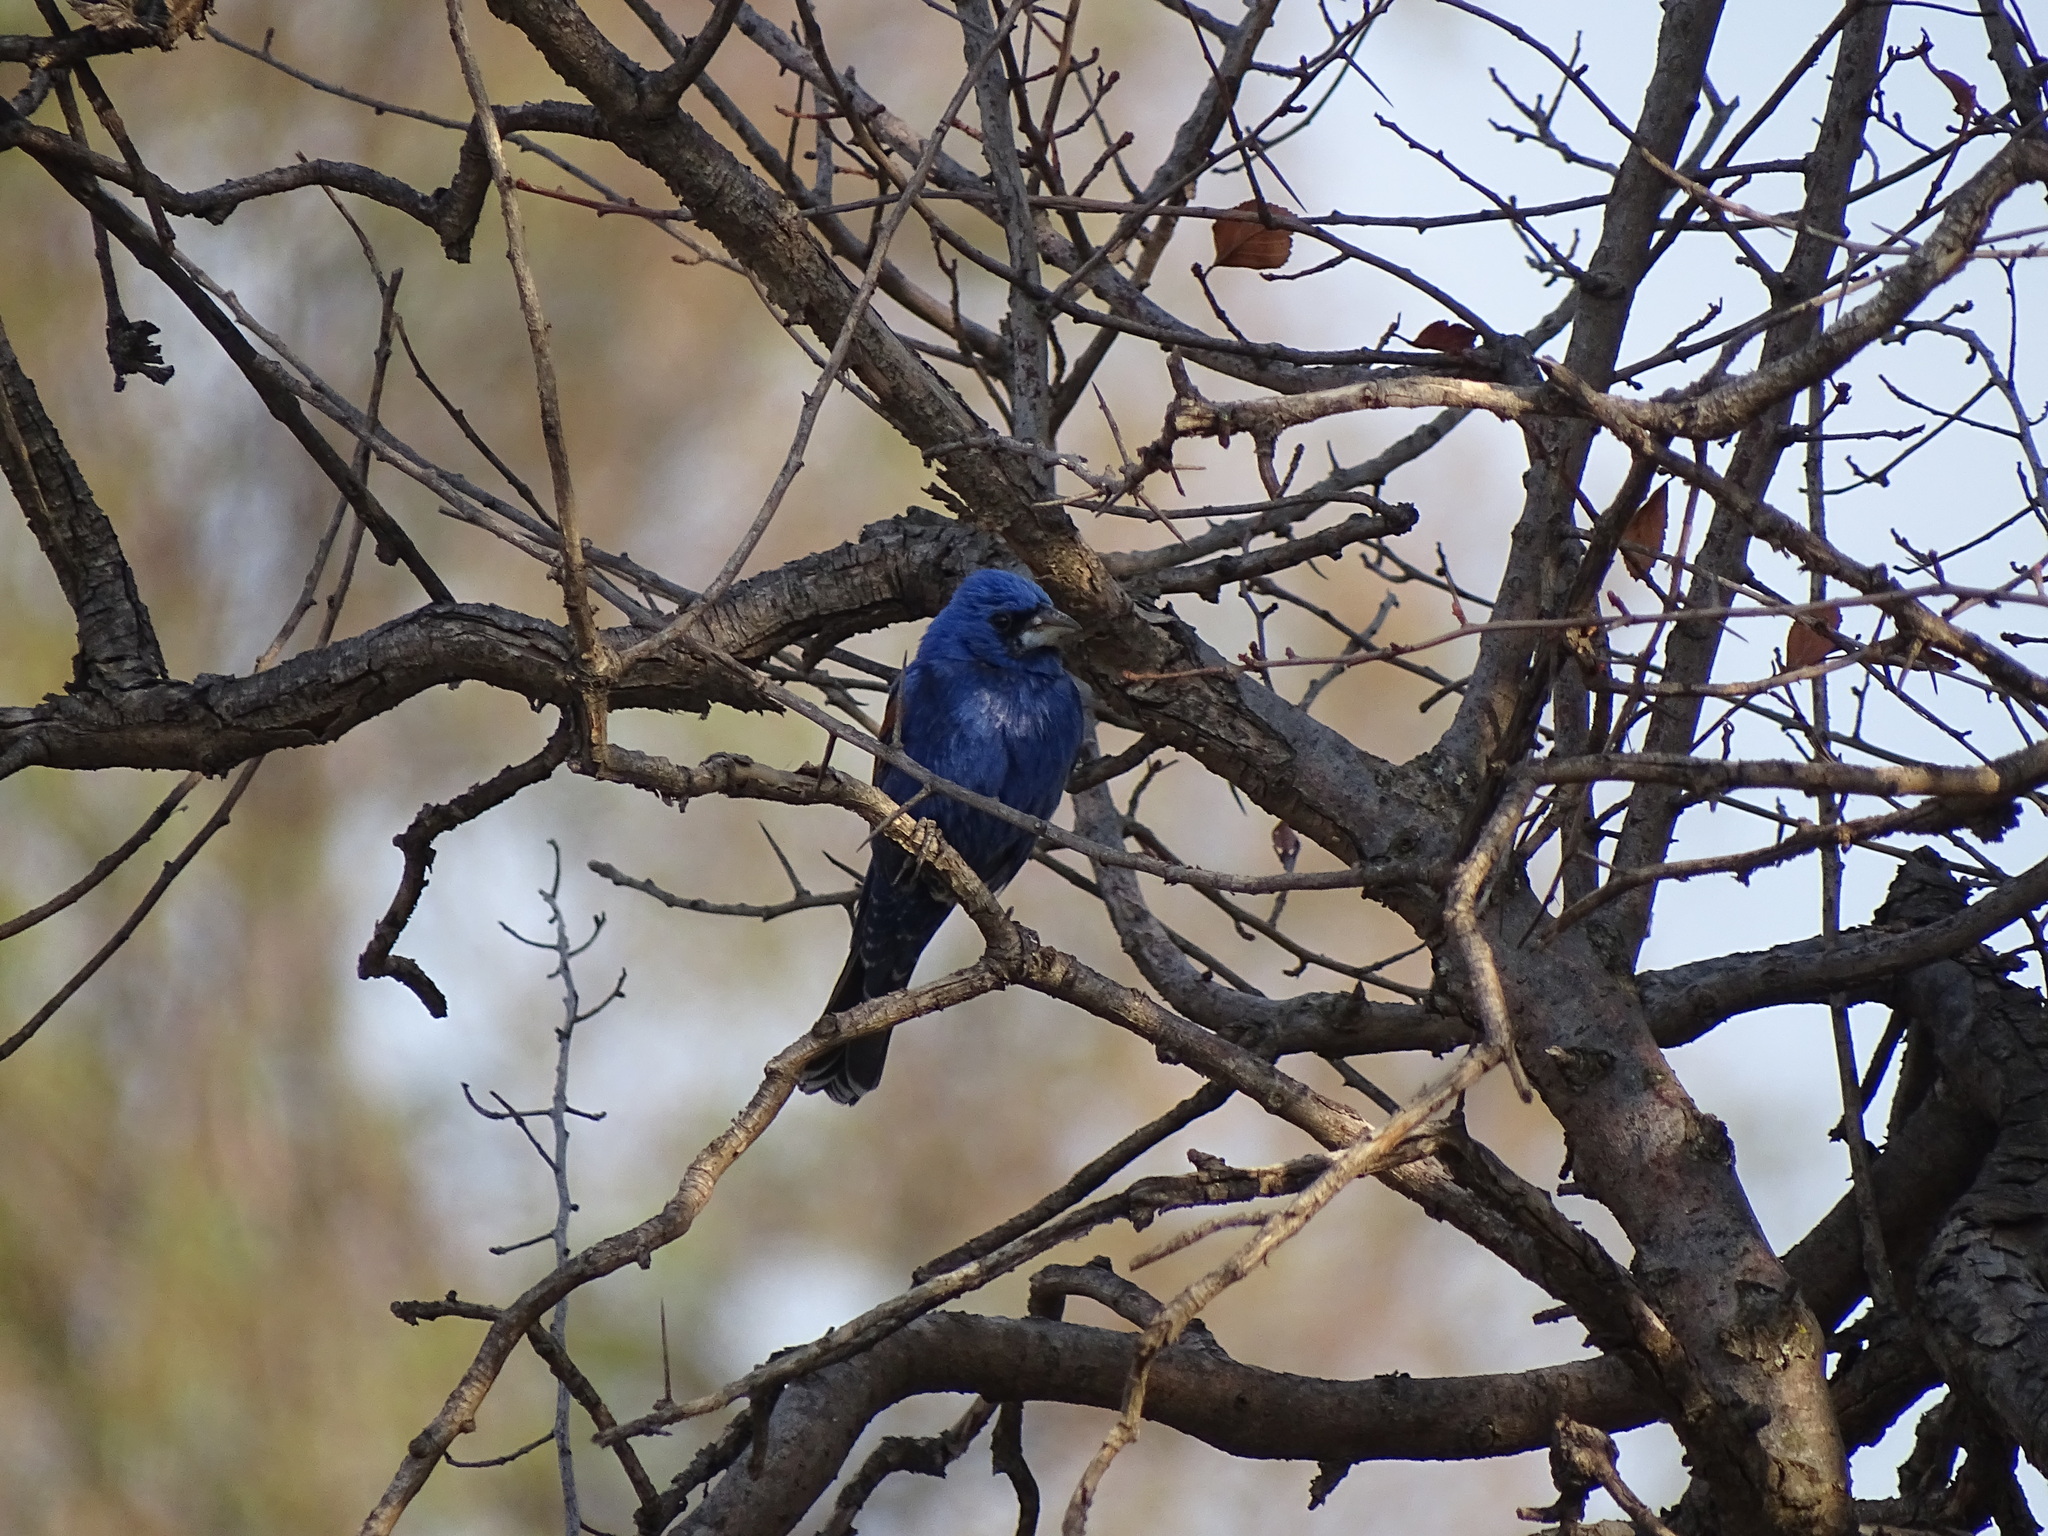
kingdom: Animalia
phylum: Chordata
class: Aves
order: Passeriformes
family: Cardinalidae
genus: Passerina
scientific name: Passerina caerulea
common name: Blue grosbeak
